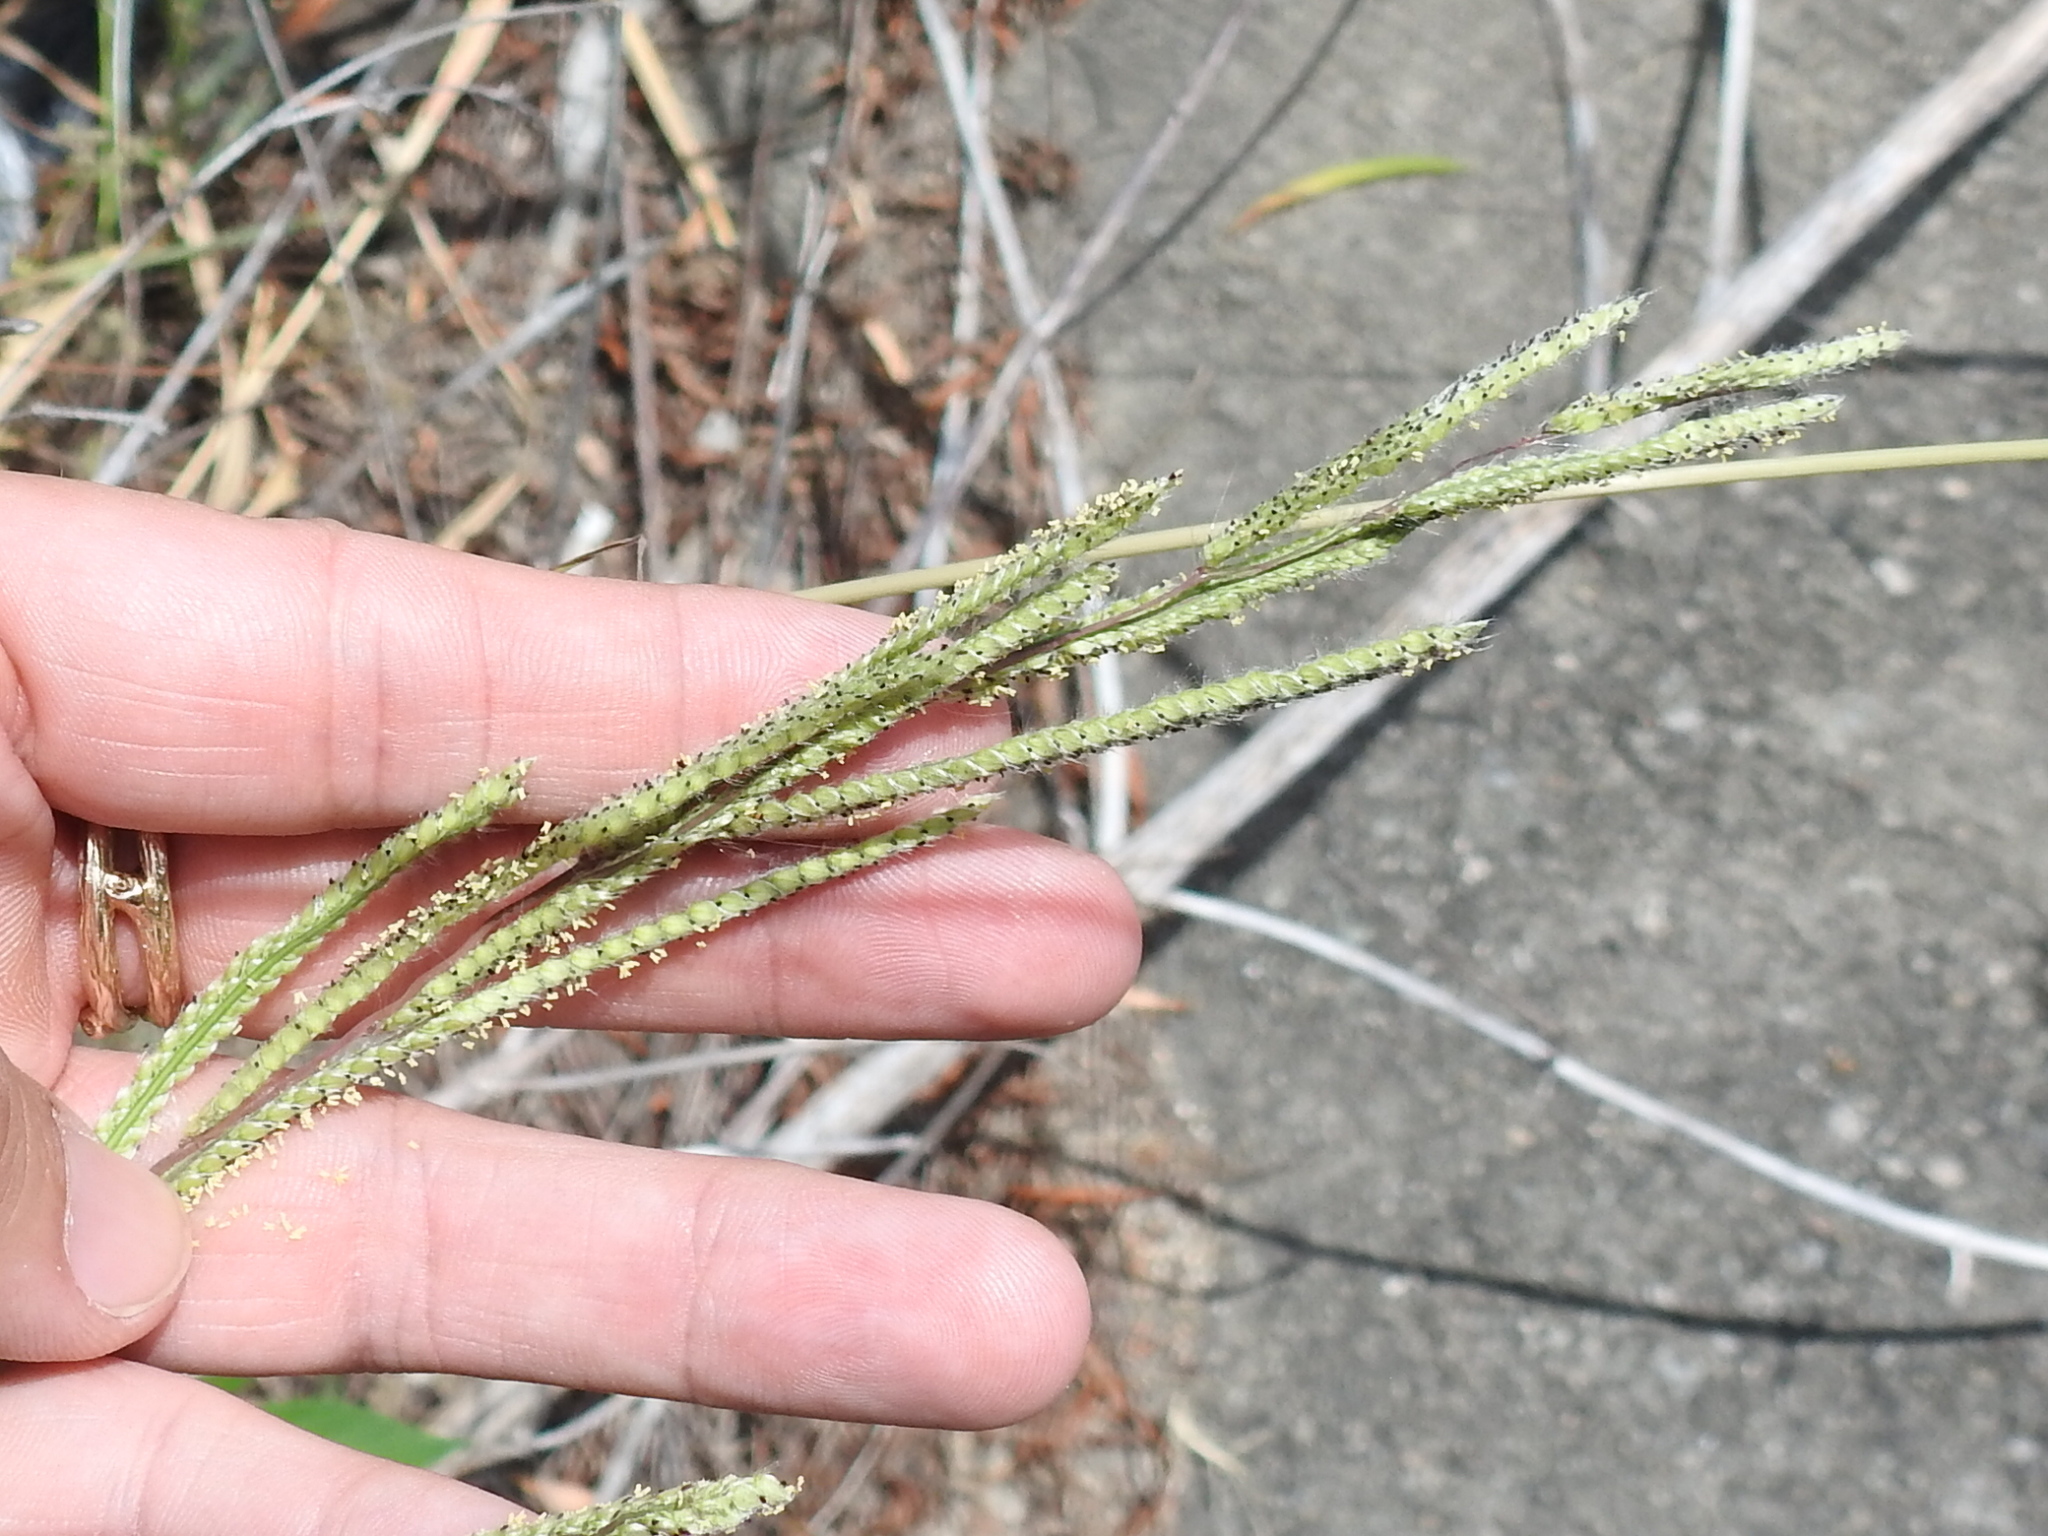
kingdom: Plantae
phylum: Tracheophyta
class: Liliopsida
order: Poales
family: Poaceae
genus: Paspalum
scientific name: Paspalum urvillei
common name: Vasey's grass
